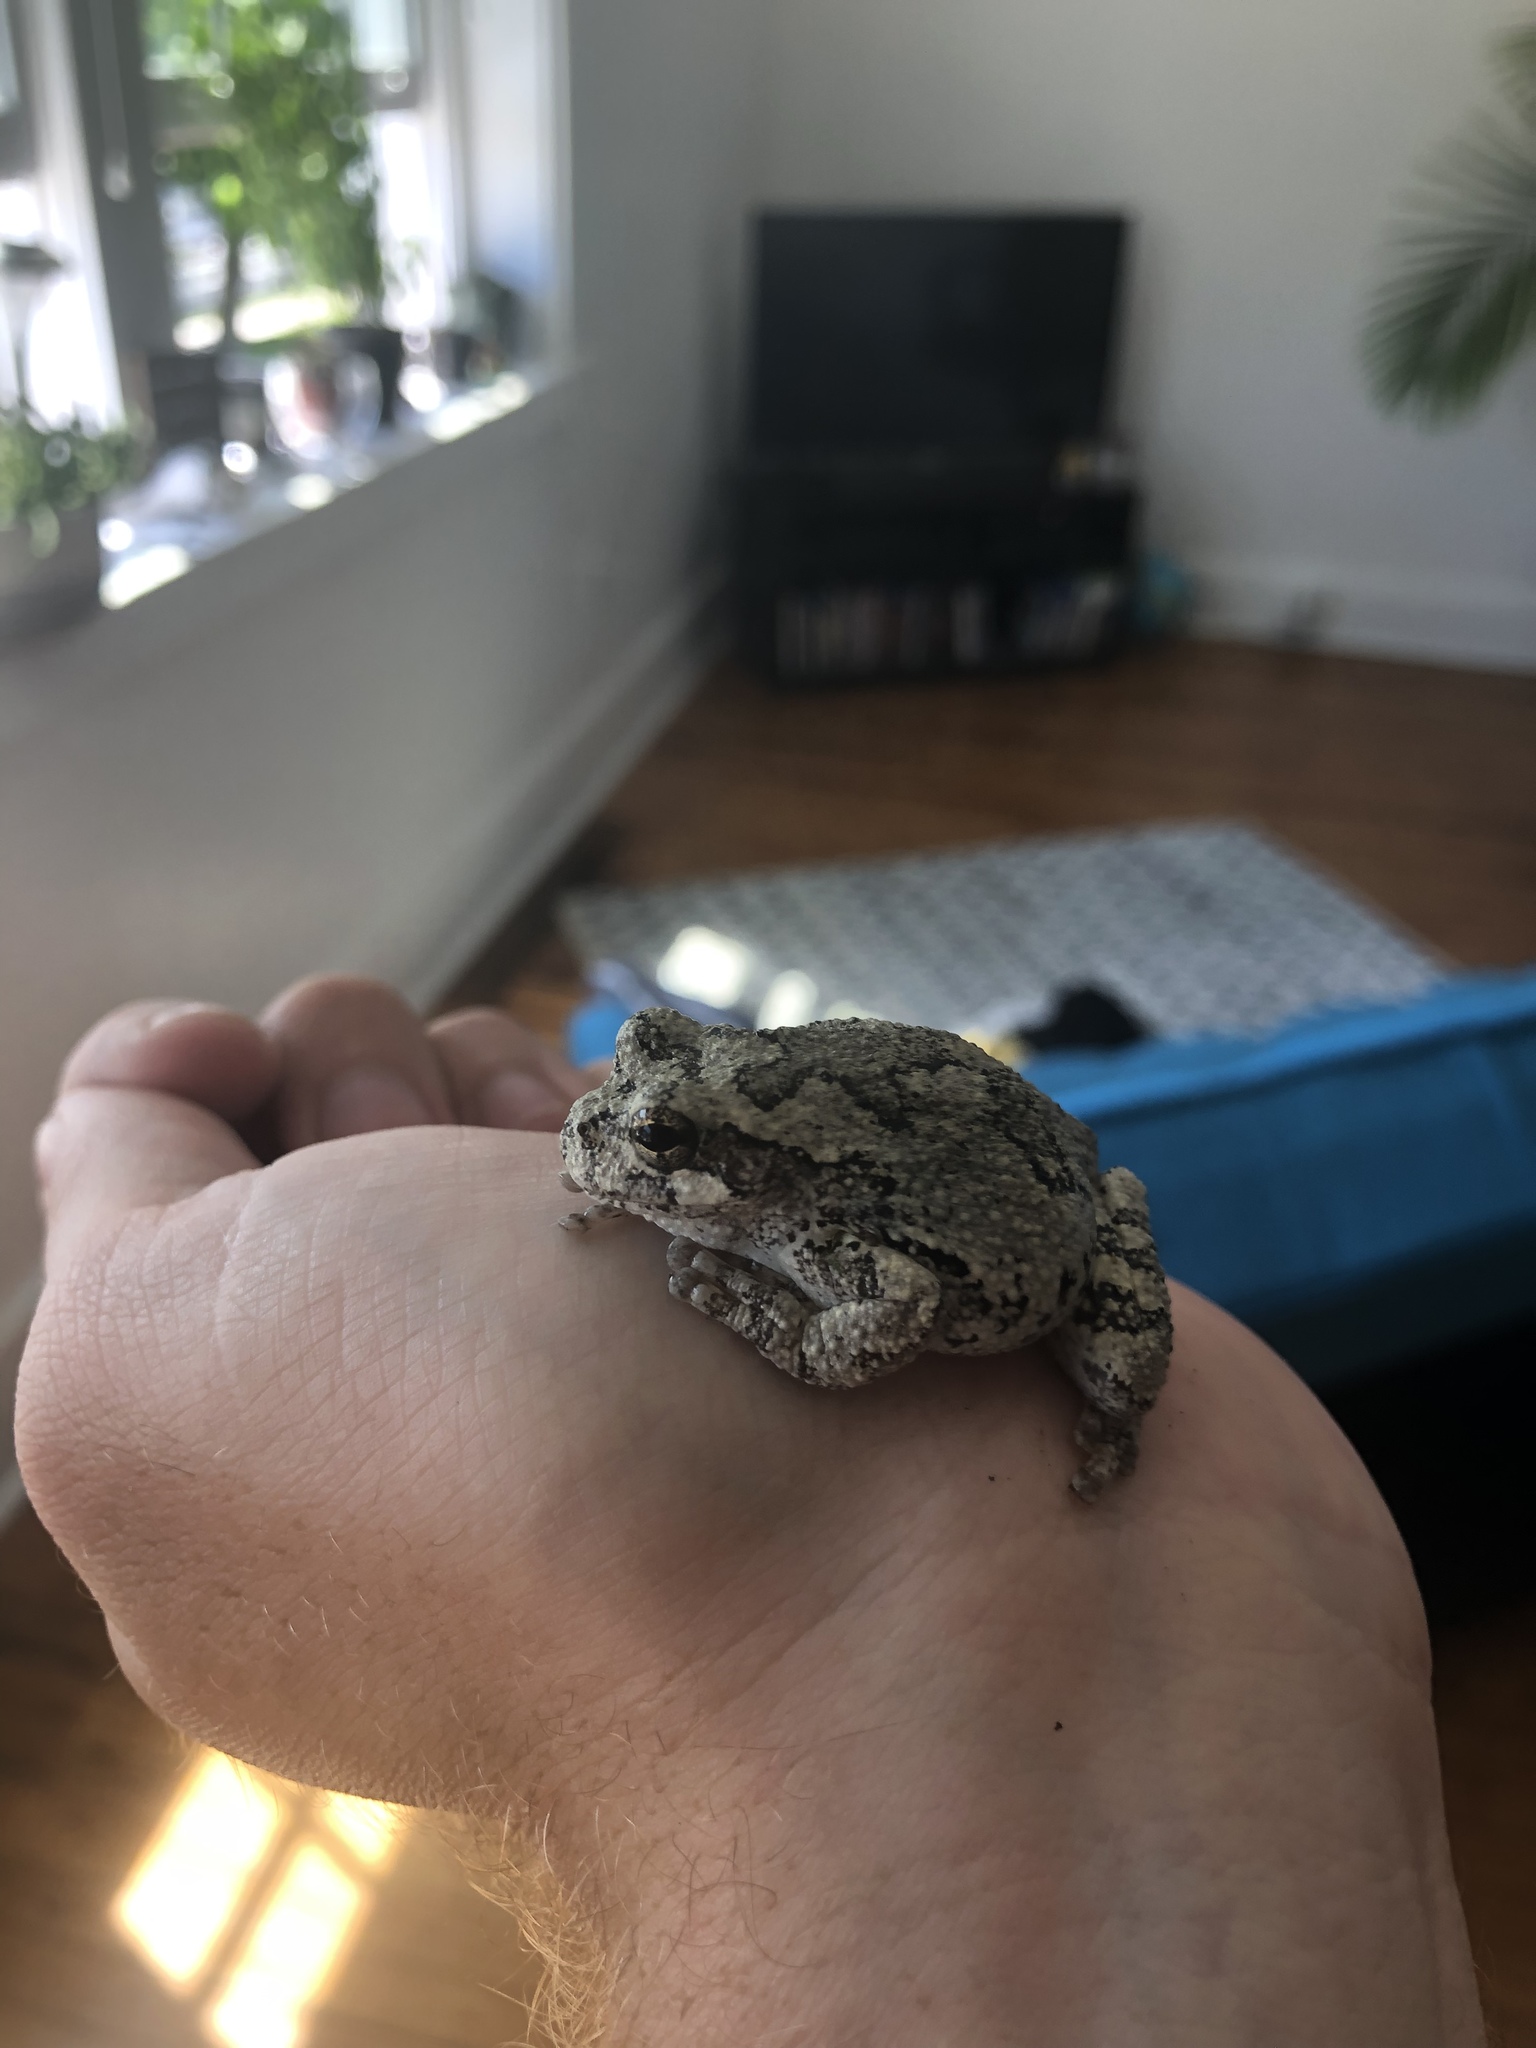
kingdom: Animalia
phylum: Chordata
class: Amphibia
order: Anura
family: Hylidae
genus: Dryophytes
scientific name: Dryophytes chrysoscelis
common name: Cope's gray treefrog
